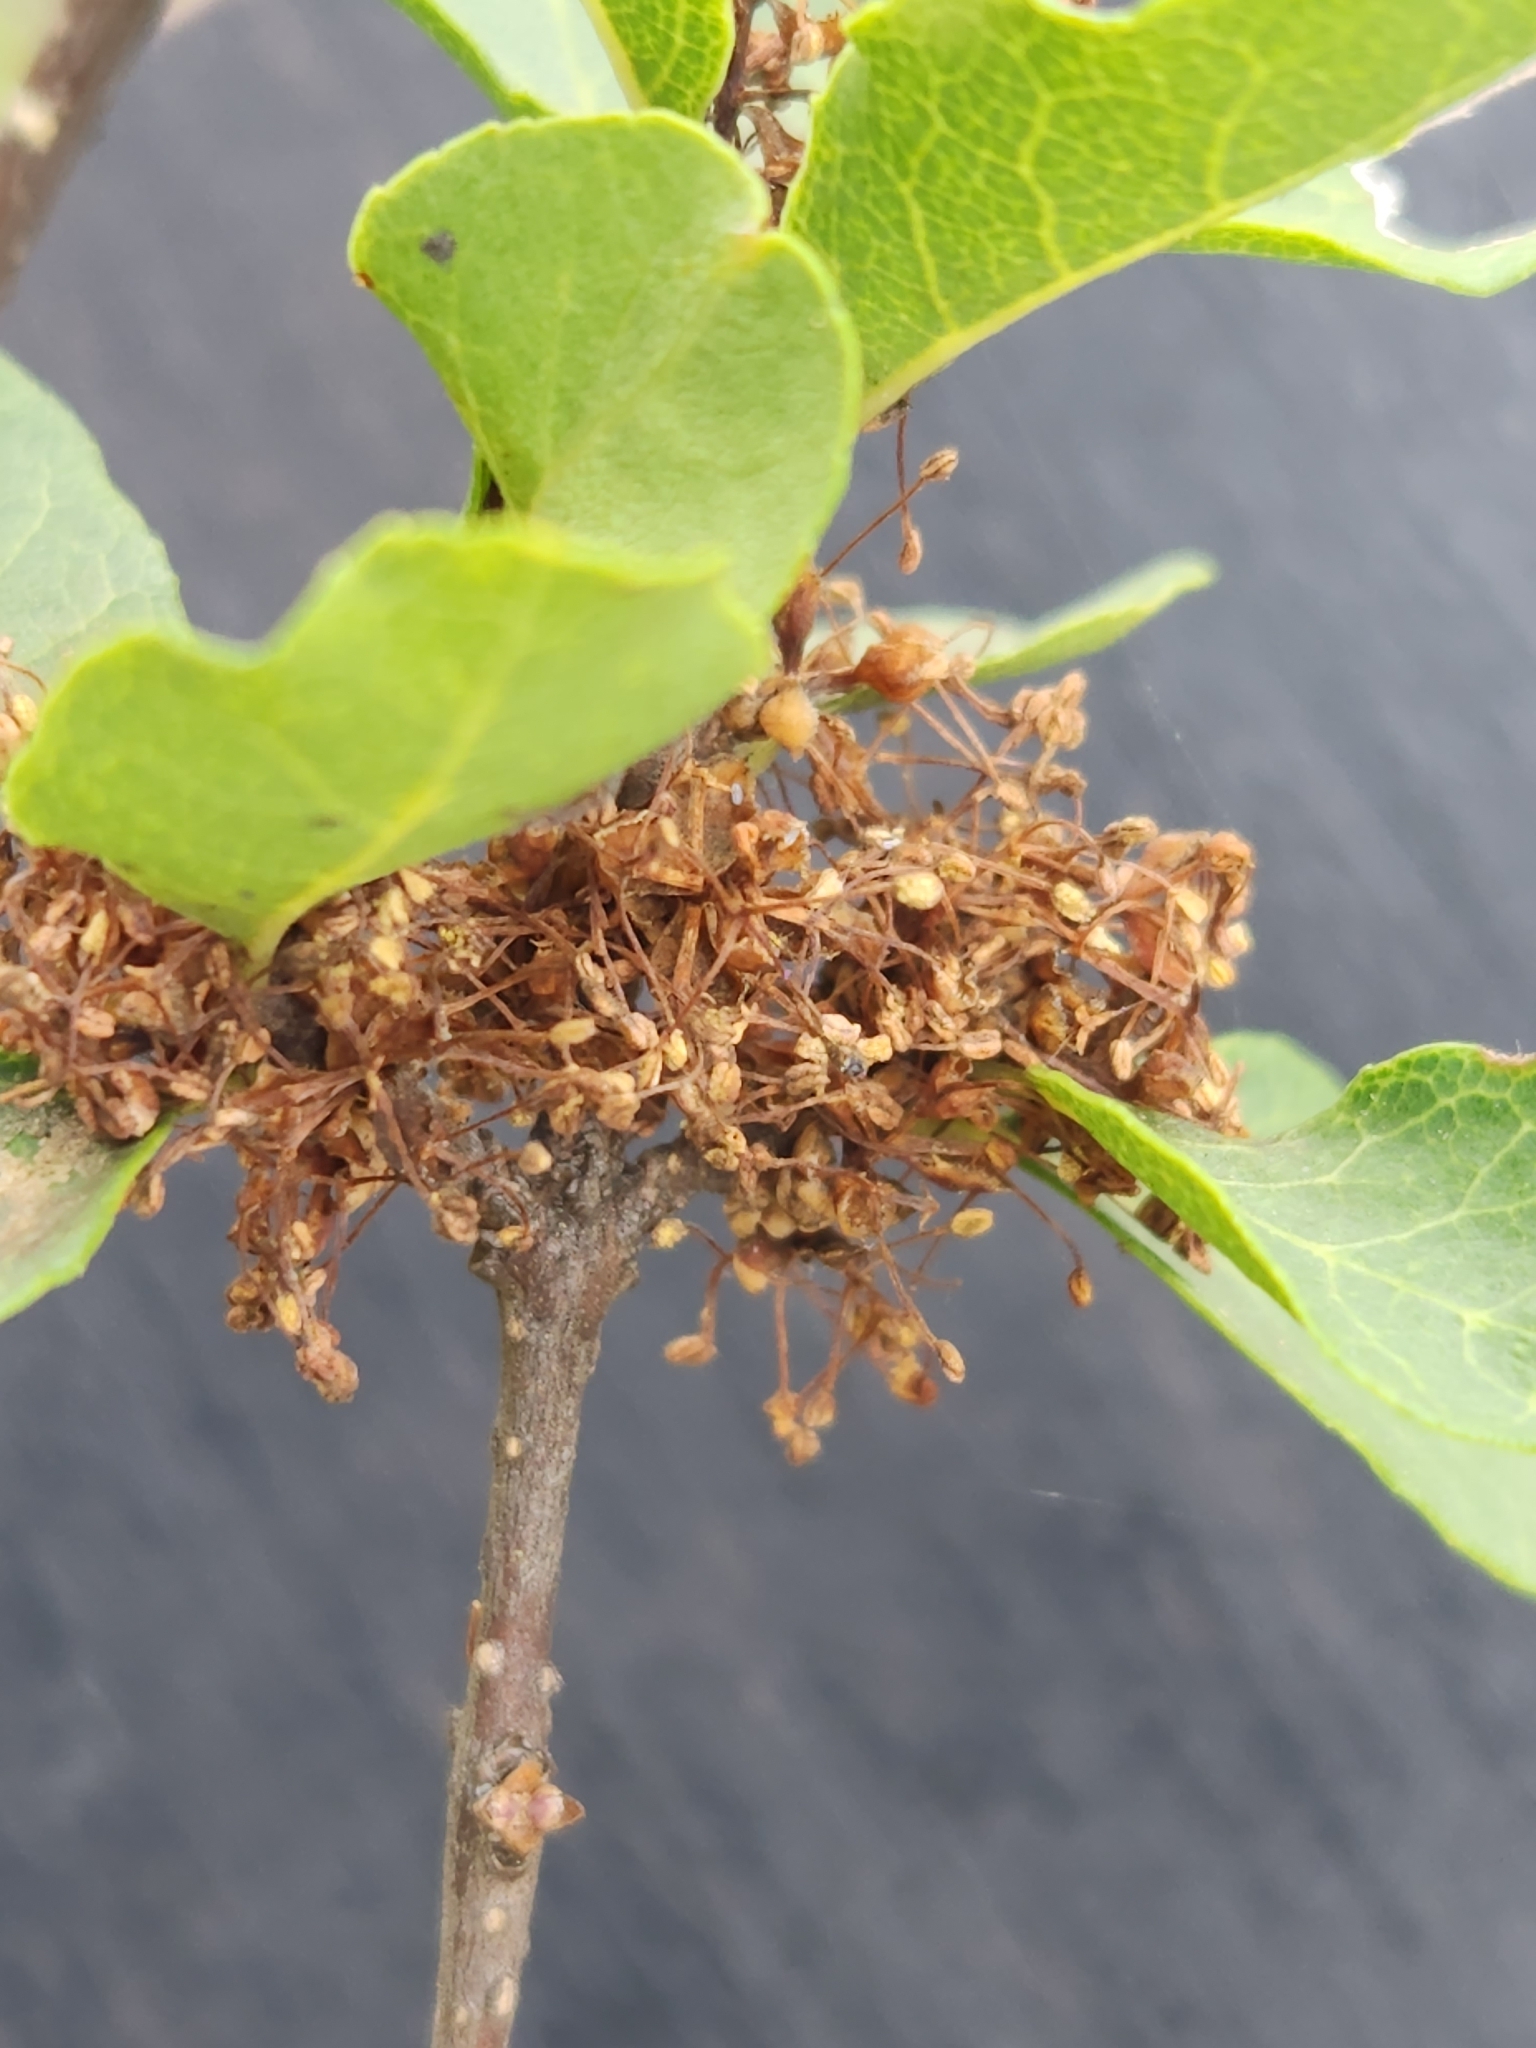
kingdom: Plantae
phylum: Tracheophyta
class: Magnoliopsida
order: Lamiales
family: Oleaceae
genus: Forestiera
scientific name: Forestiera reticulata
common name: Netleaf swamp-privet
